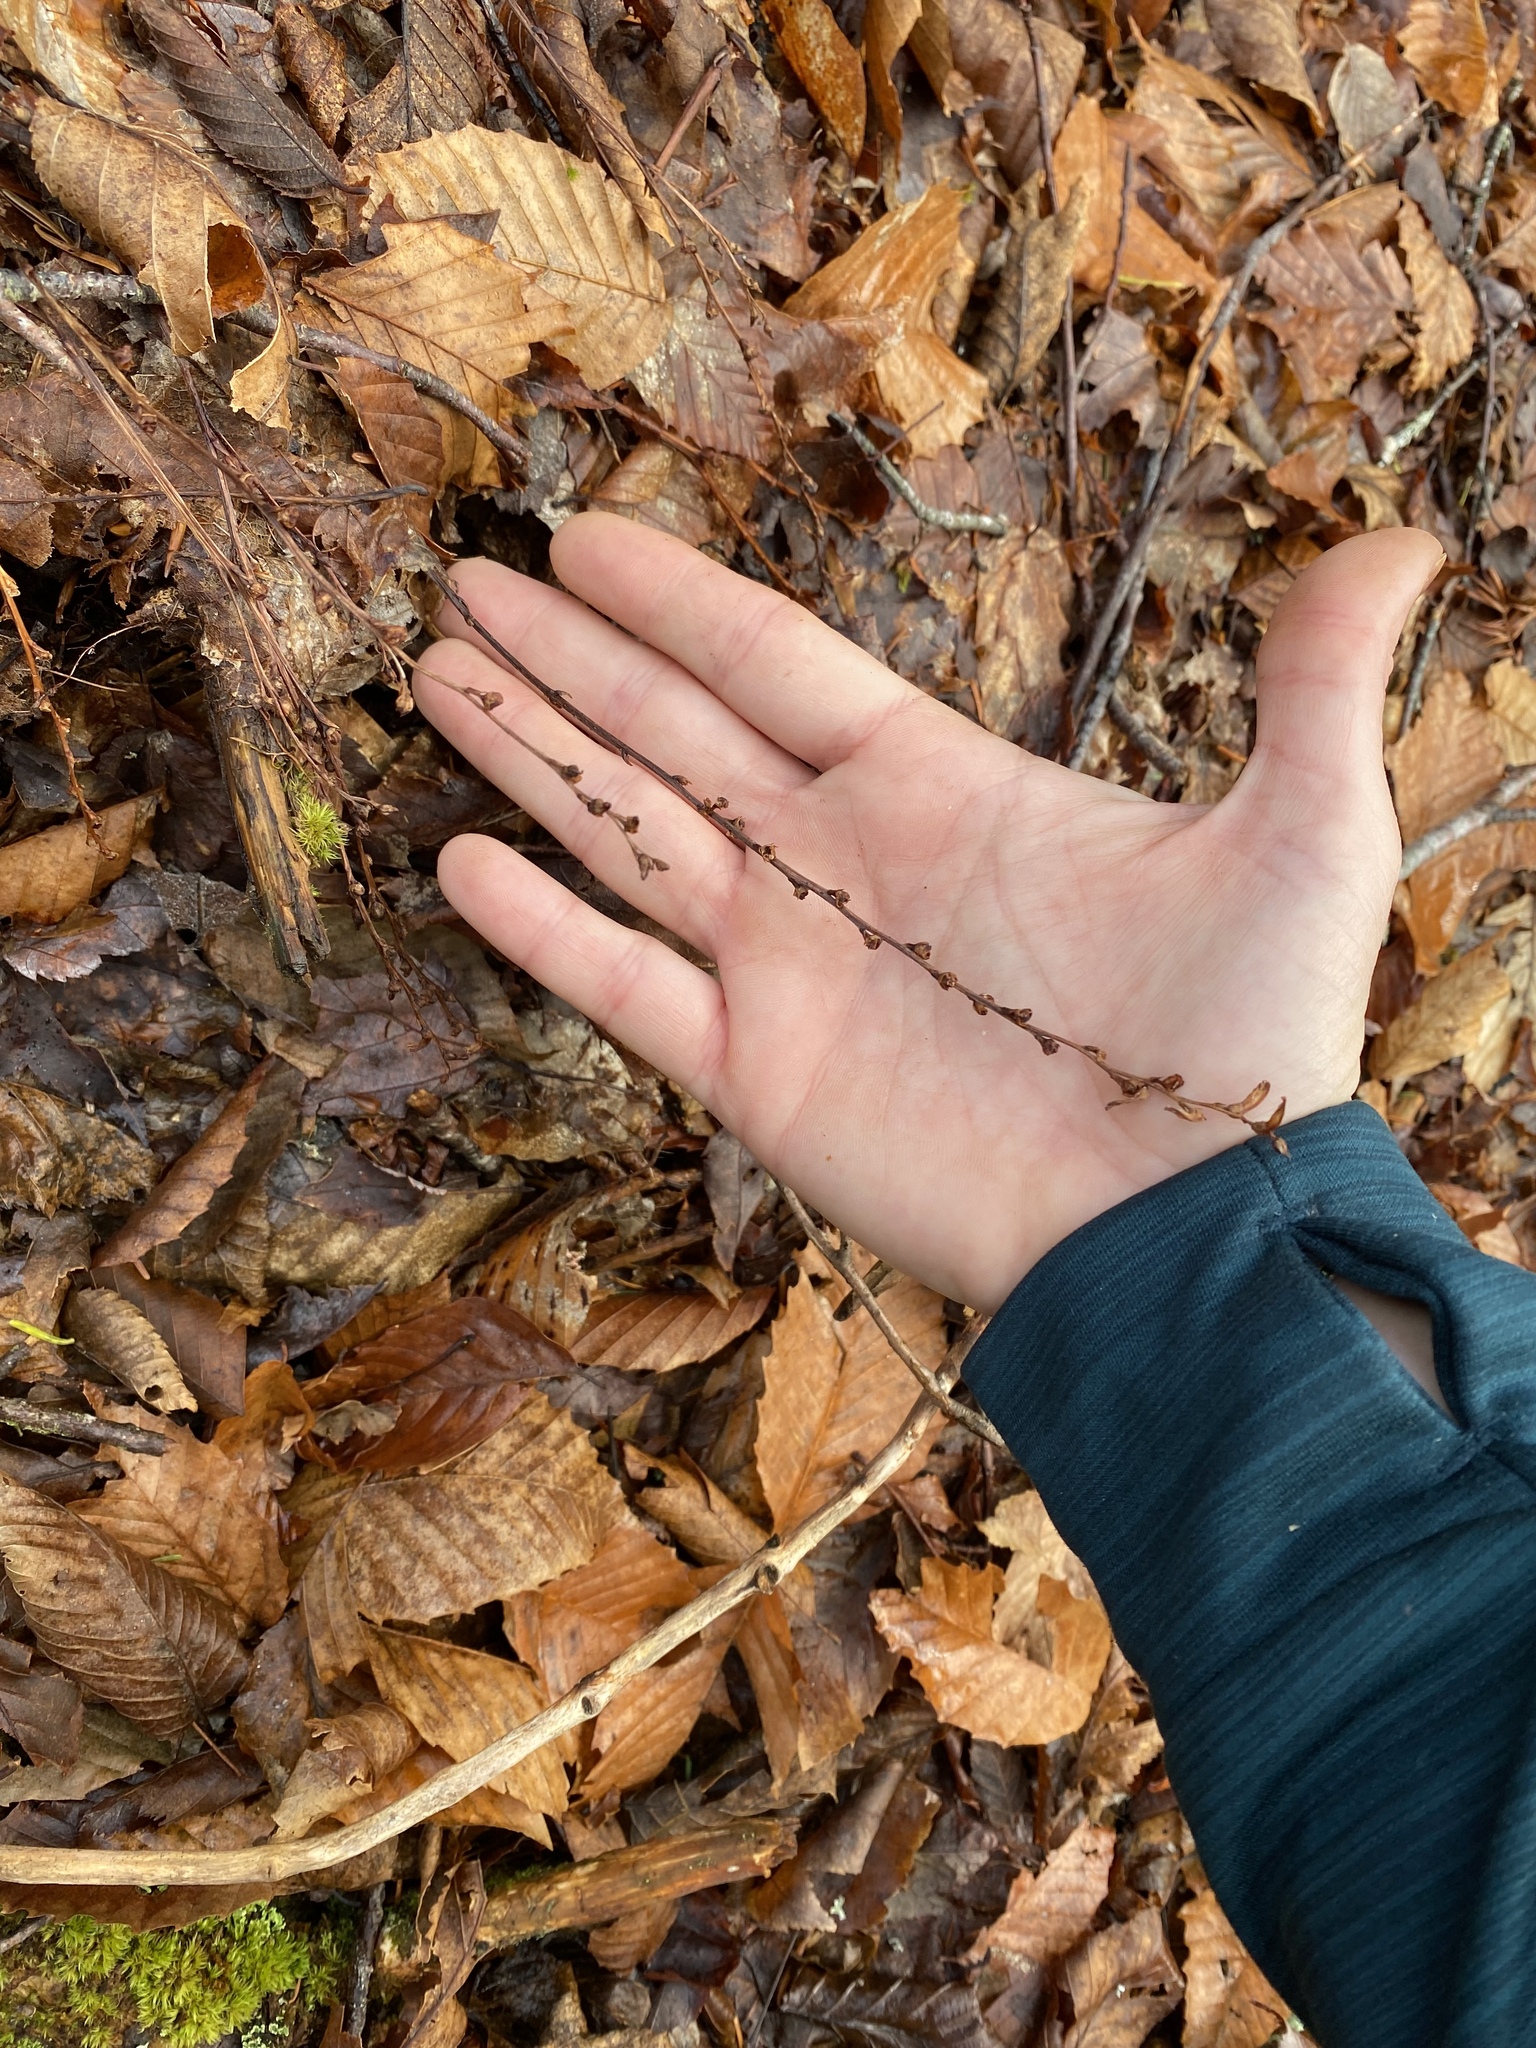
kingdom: Plantae
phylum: Tracheophyta
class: Magnoliopsida
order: Lamiales
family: Orobanchaceae
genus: Epifagus
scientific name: Epifagus virginiana
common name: Beechdrops
